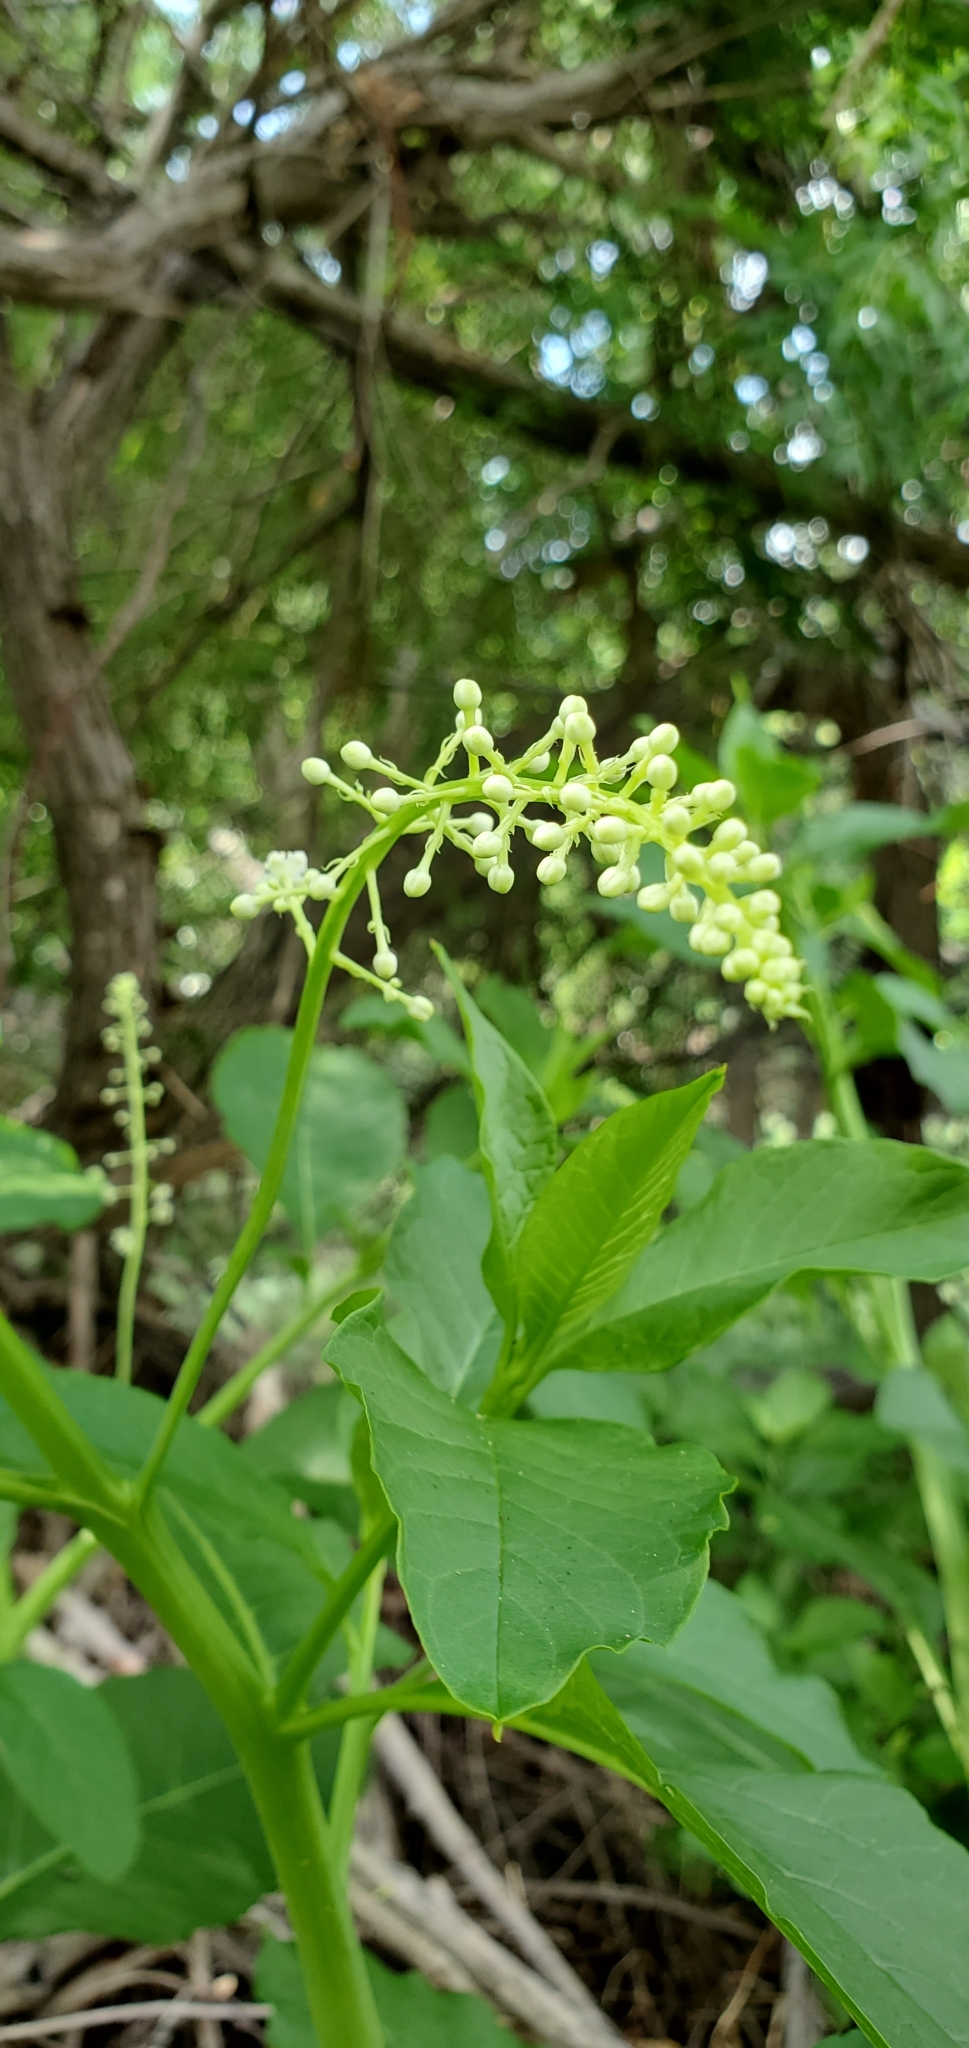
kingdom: Plantae
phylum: Tracheophyta
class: Magnoliopsida
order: Caryophyllales
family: Phytolaccaceae
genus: Phytolacca
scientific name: Phytolacca americana
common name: American pokeweed
